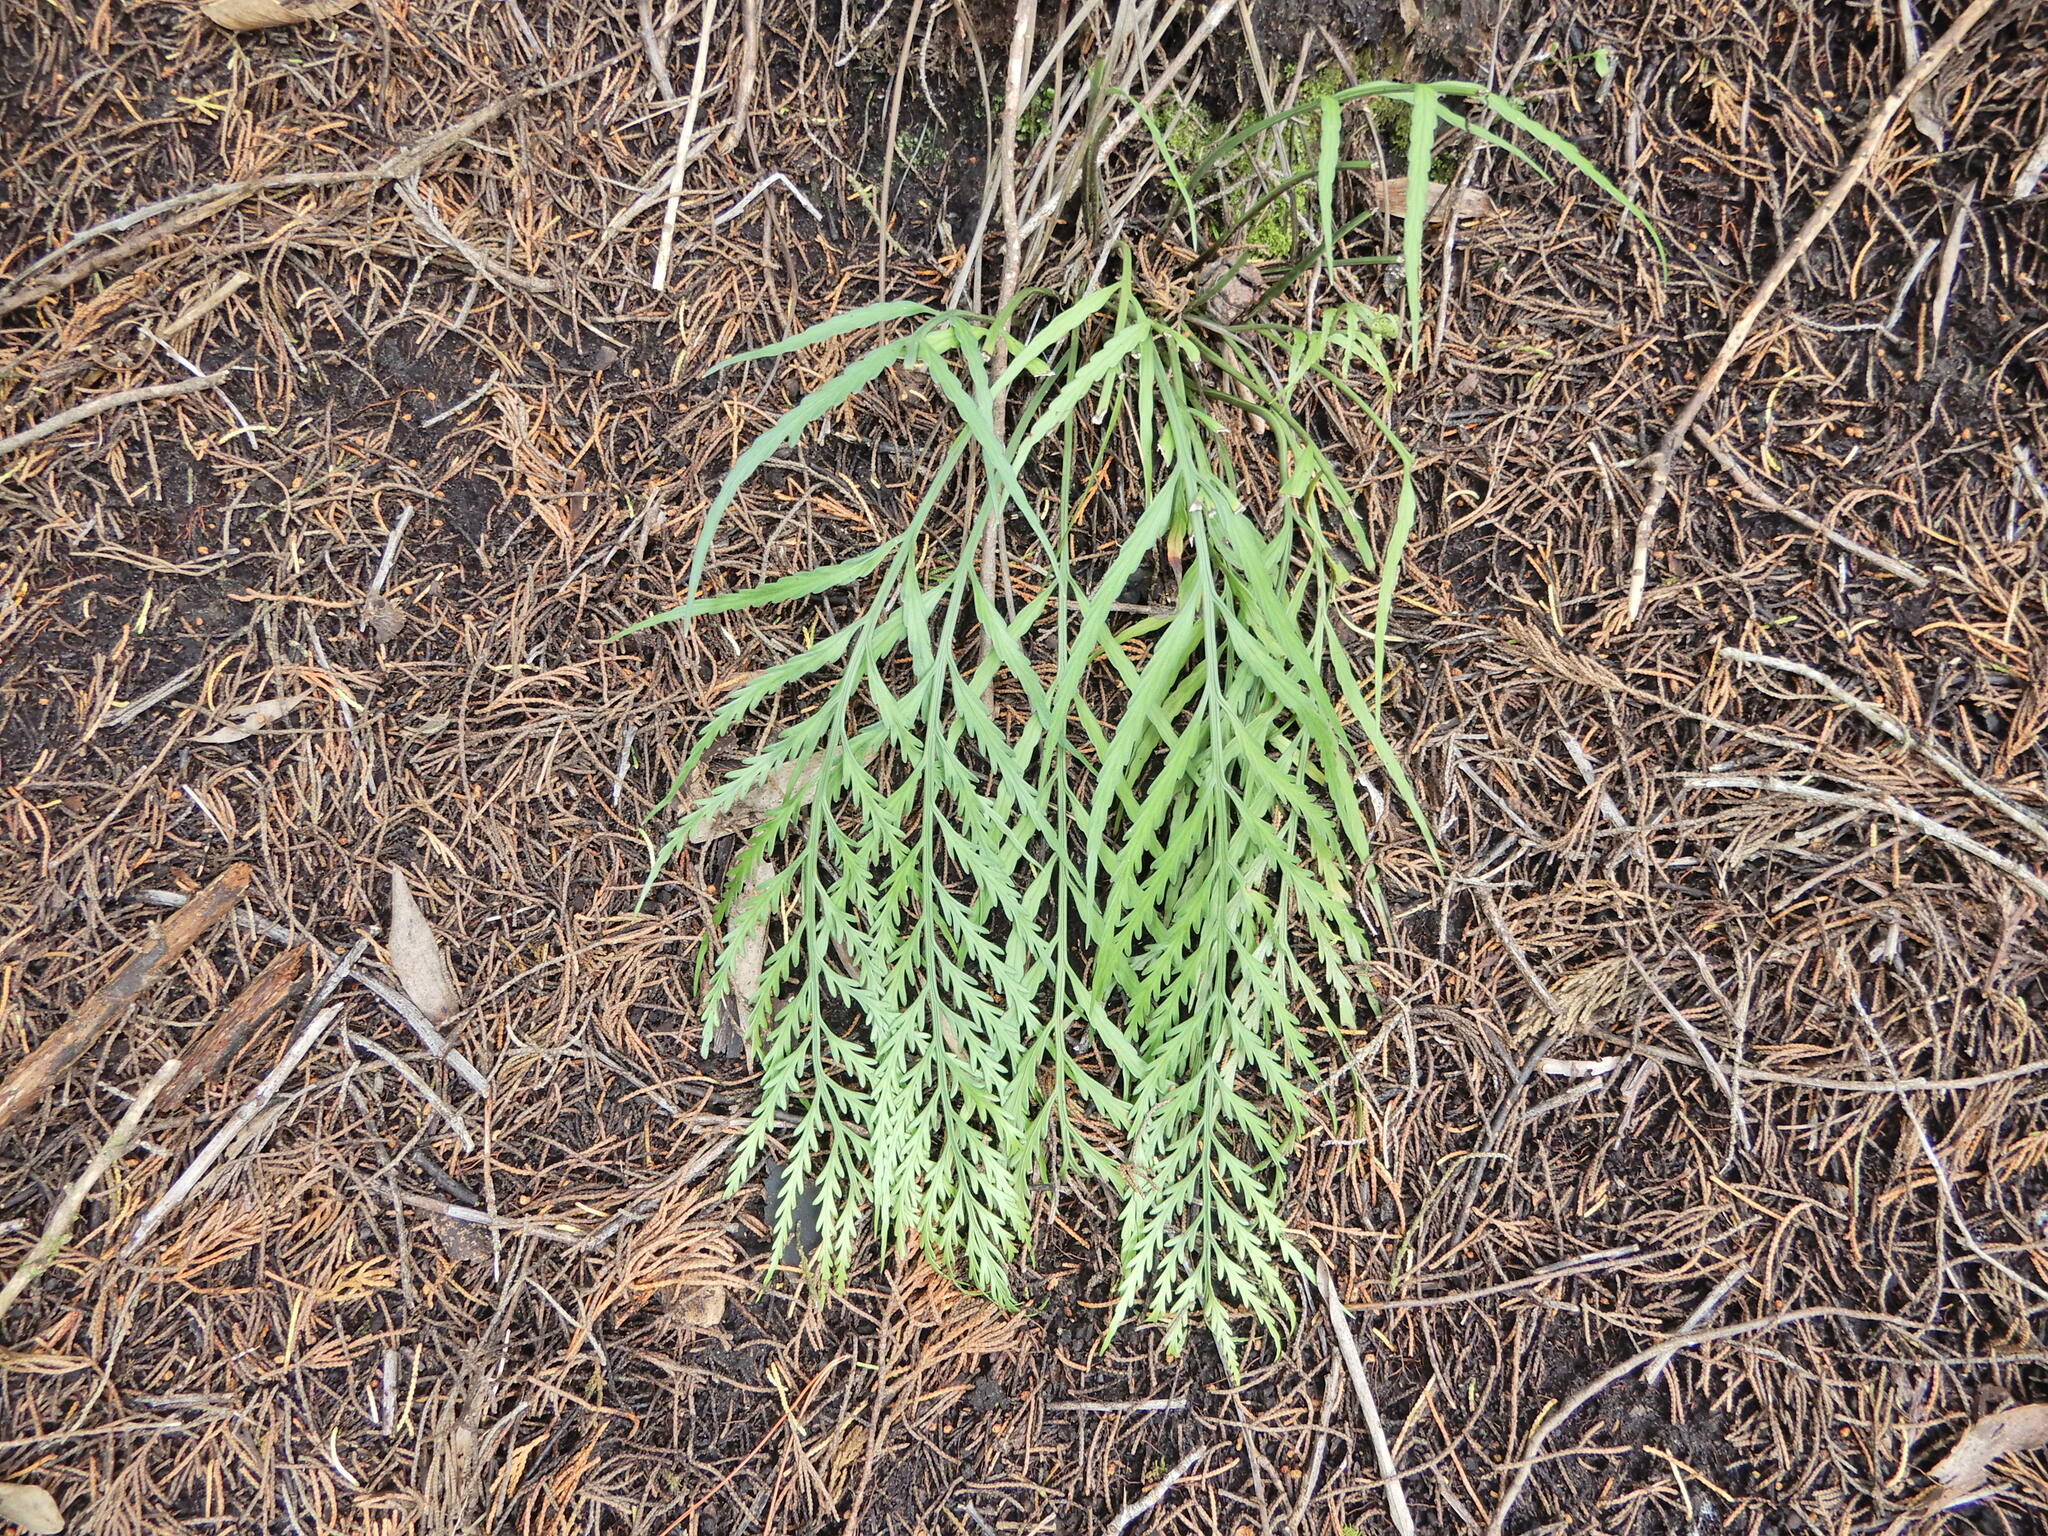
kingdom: Plantae
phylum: Tracheophyta
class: Polypodiopsida
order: Polypodiales
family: Aspleniaceae
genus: Asplenium
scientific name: Asplenium flaccidum
